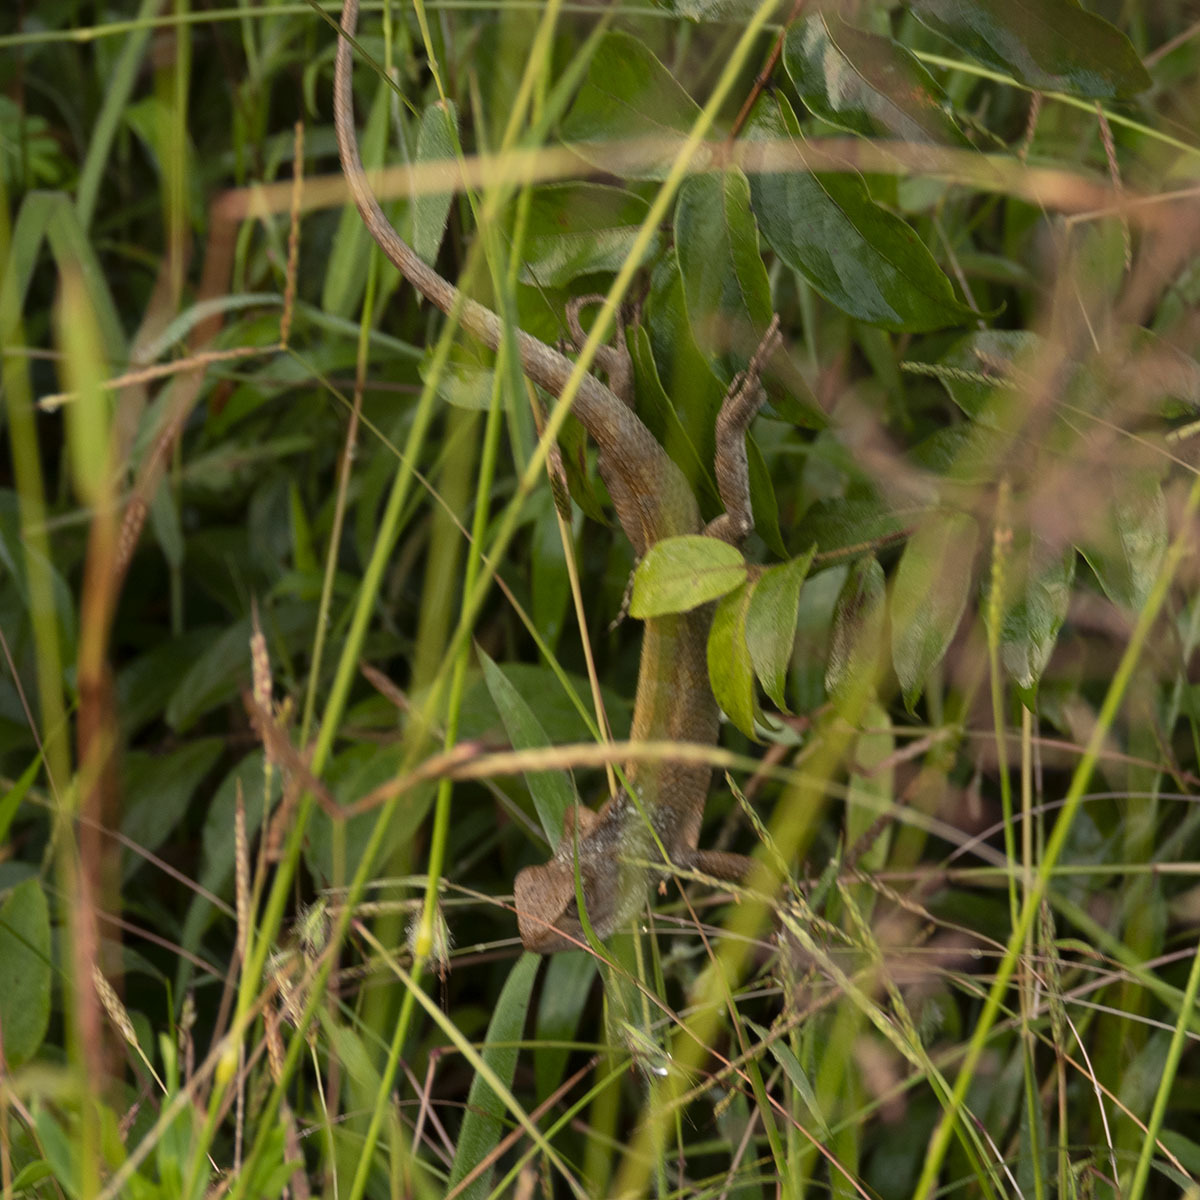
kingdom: Animalia
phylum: Chordata
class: Squamata
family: Agamidae
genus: Calotes
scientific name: Calotes versicolor
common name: Oriental garden lizard
